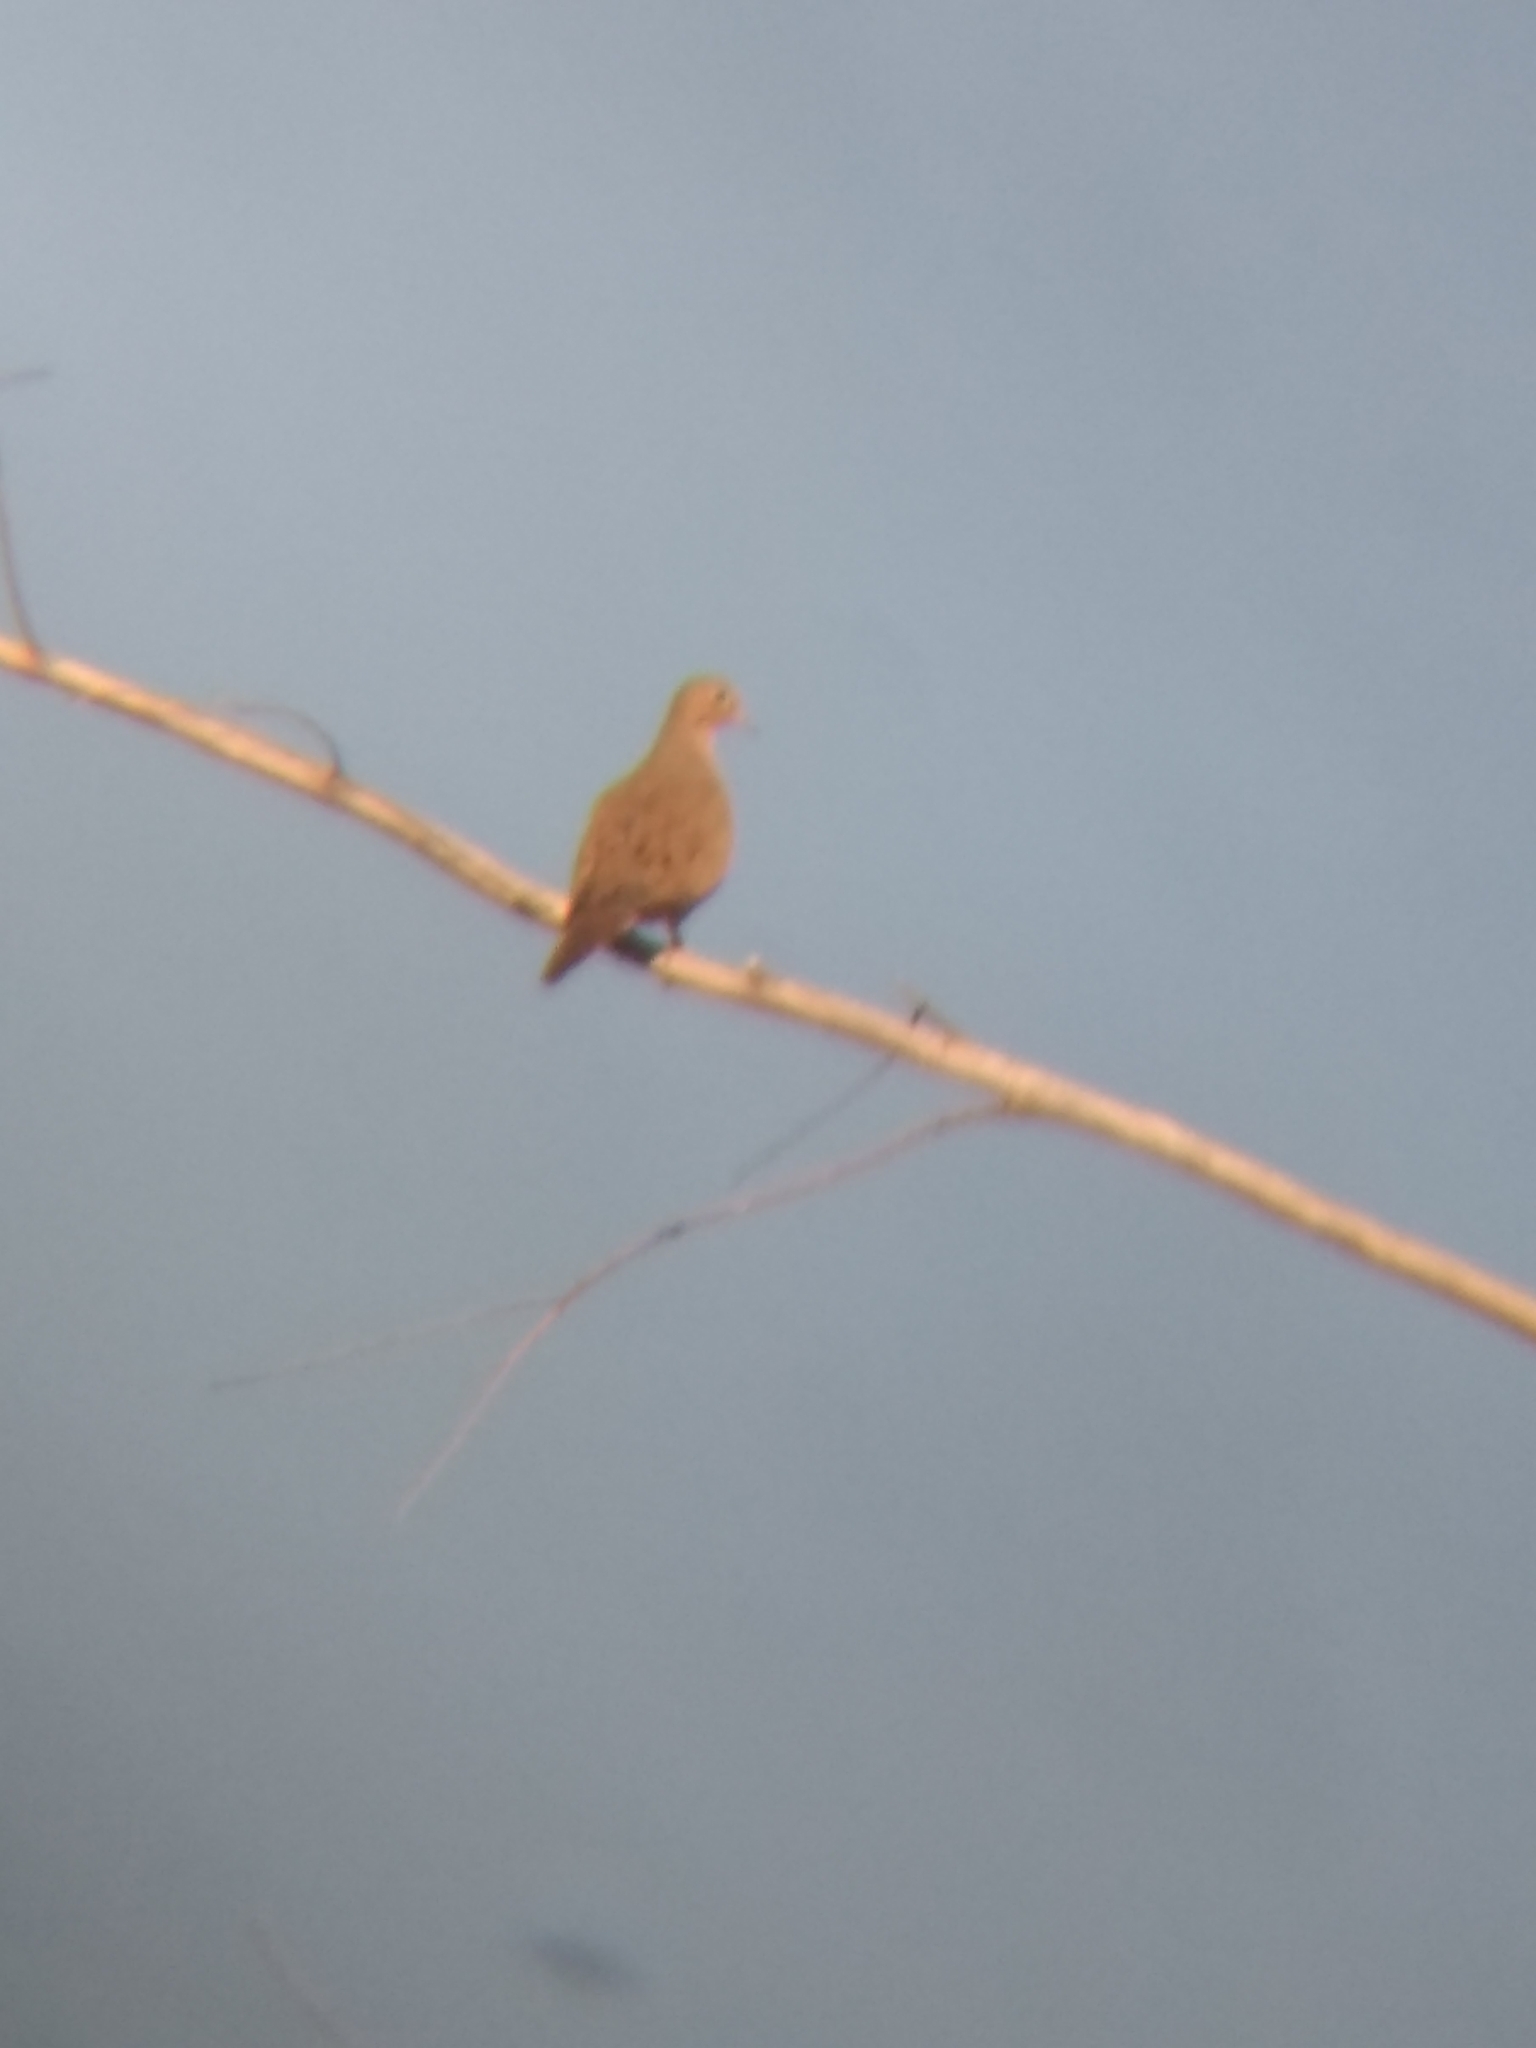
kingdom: Animalia
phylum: Chordata
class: Aves
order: Columbiformes
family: Columbidae
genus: Zenaida
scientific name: Zenaida macroura
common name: Mourning dove
